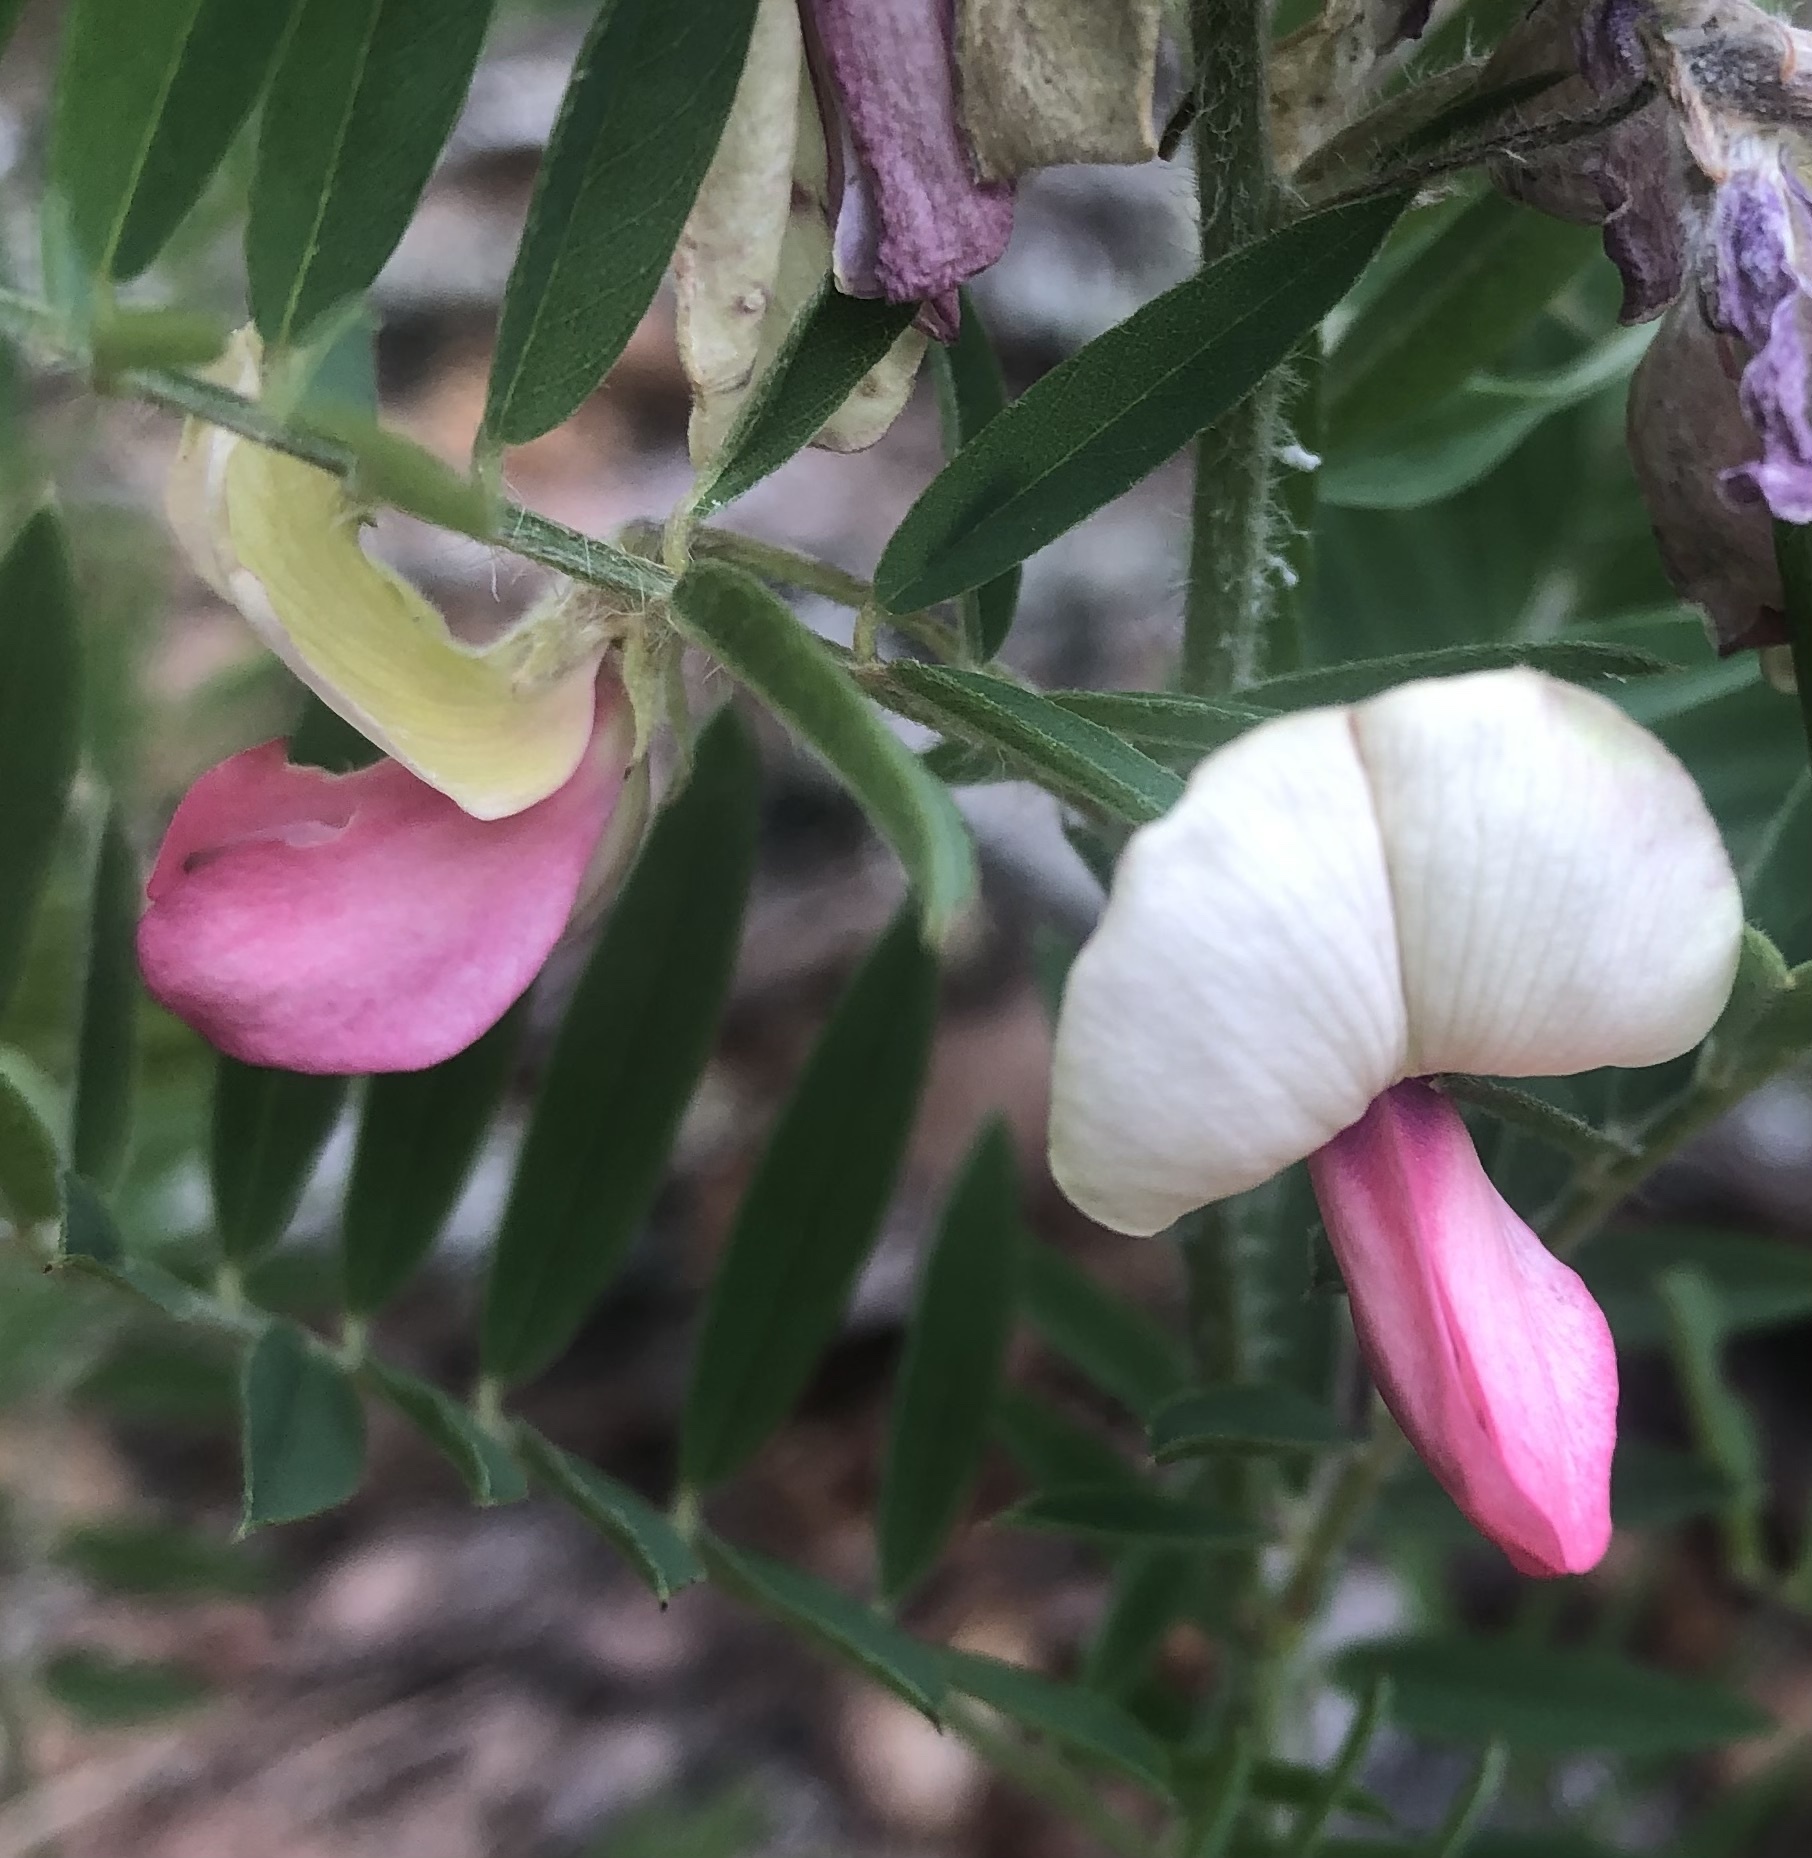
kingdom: Plantae
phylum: Tracheophyta
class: Magnoliopsida
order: Fabales
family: Fabaceae
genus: Tephrosia
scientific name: Tephrosia virginiana
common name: Rabbit-pea
